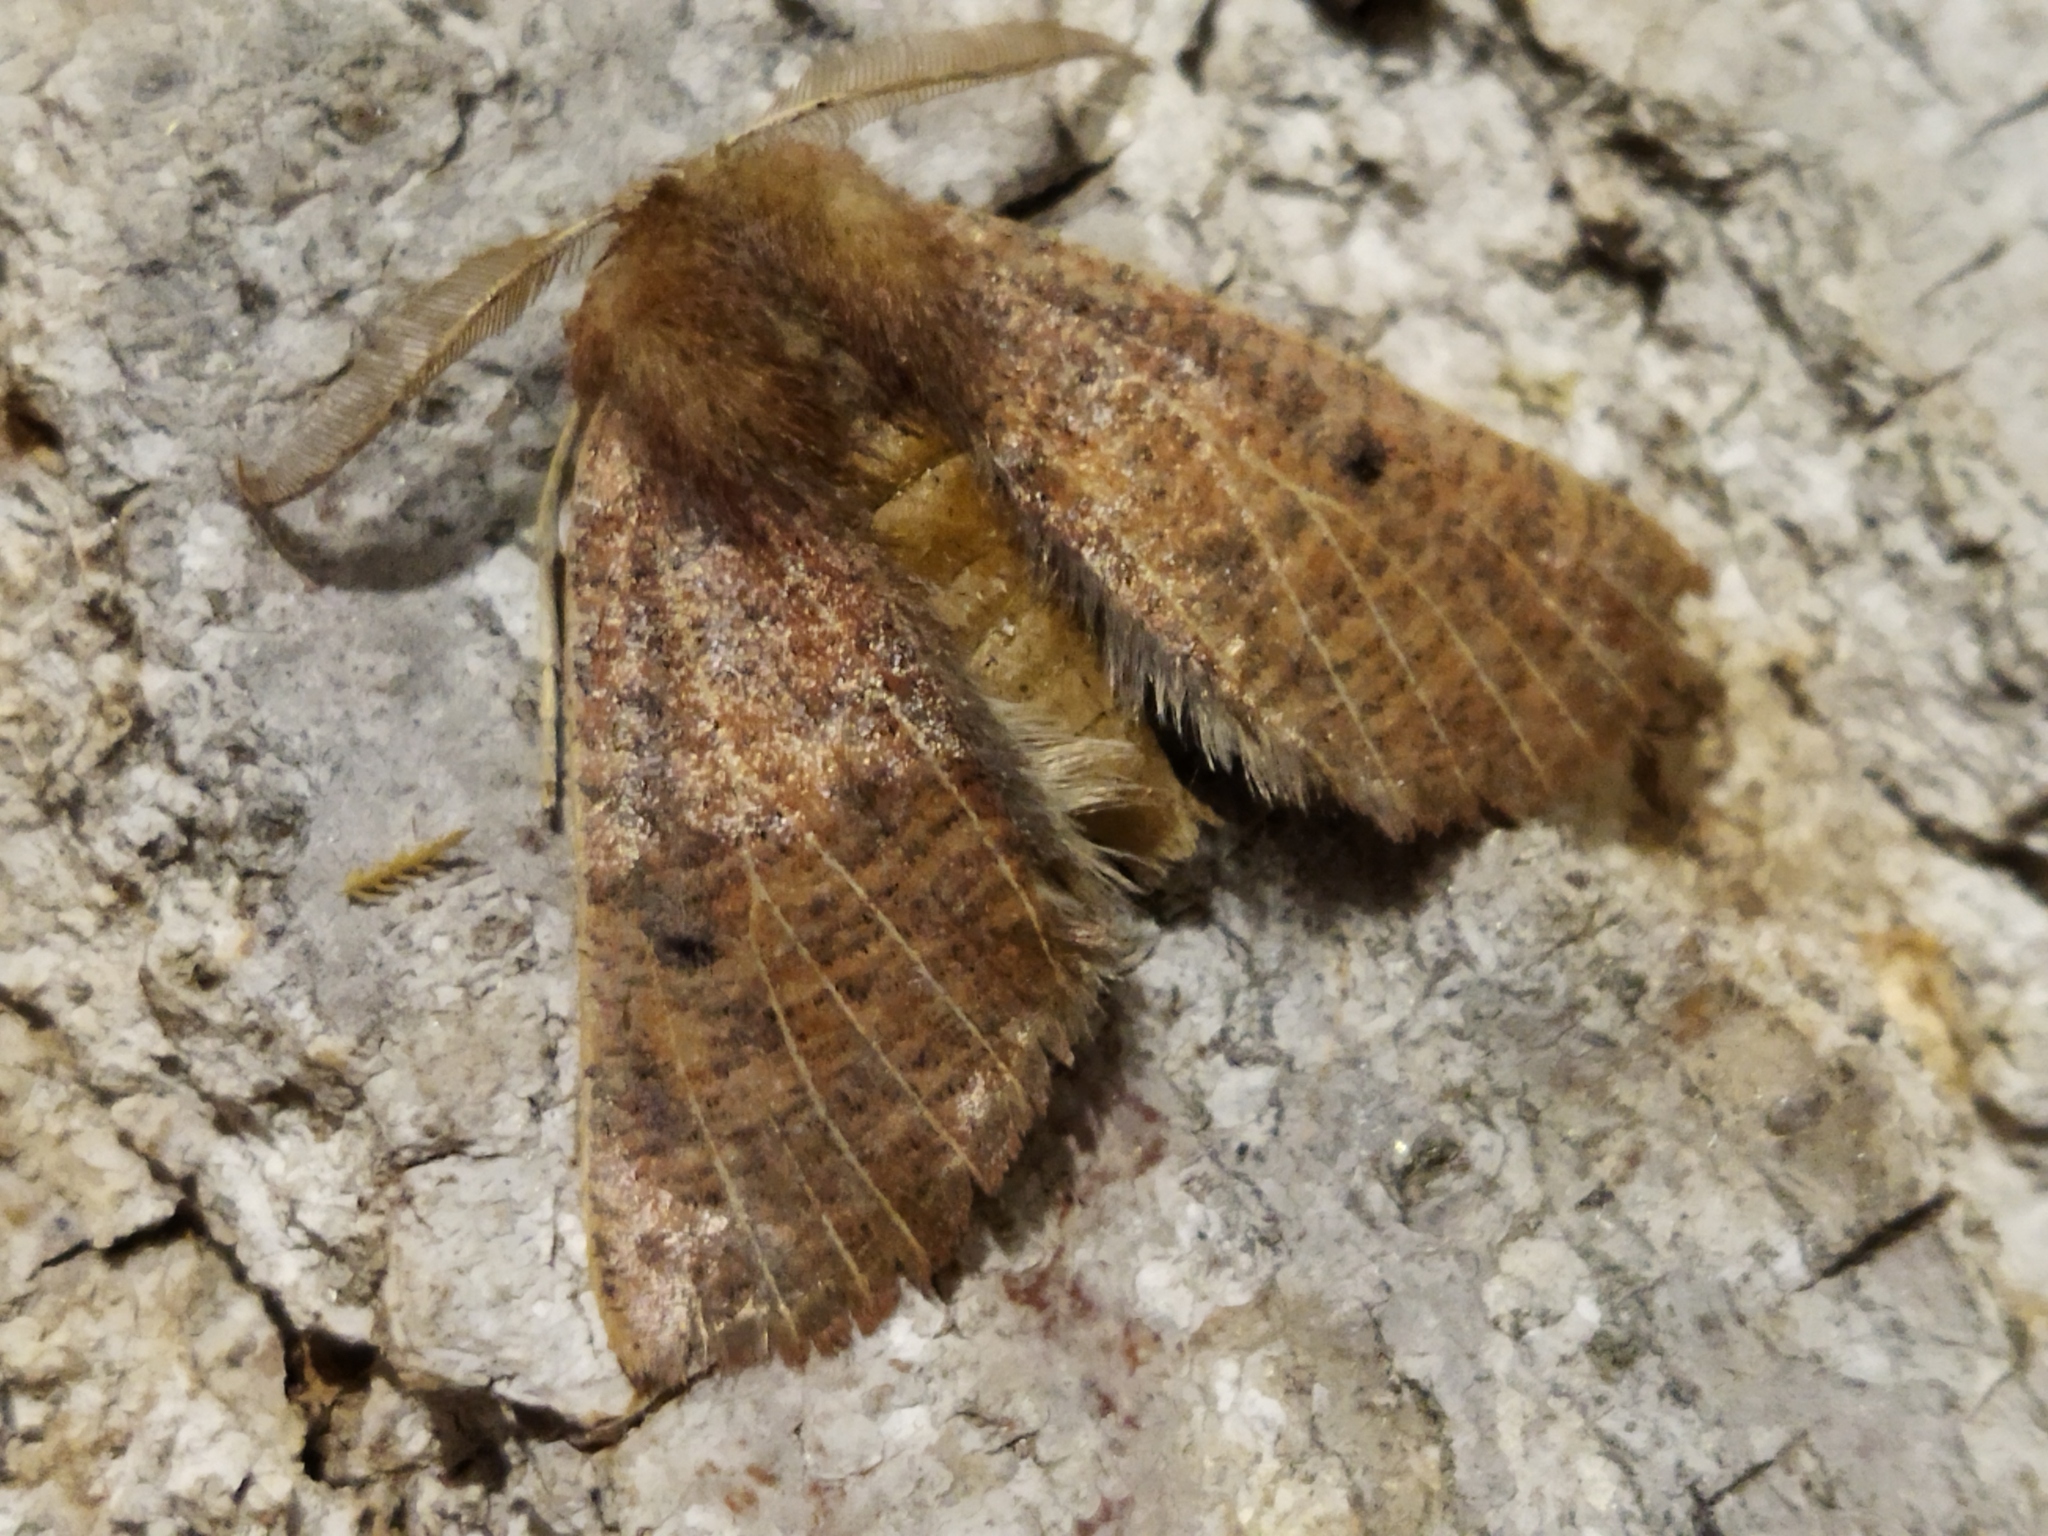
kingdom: Animalia
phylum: Arthropoda
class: Insecta
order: Lepidoptera
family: Geometridae
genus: Dasycorsa
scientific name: Dasycorsa modesta
